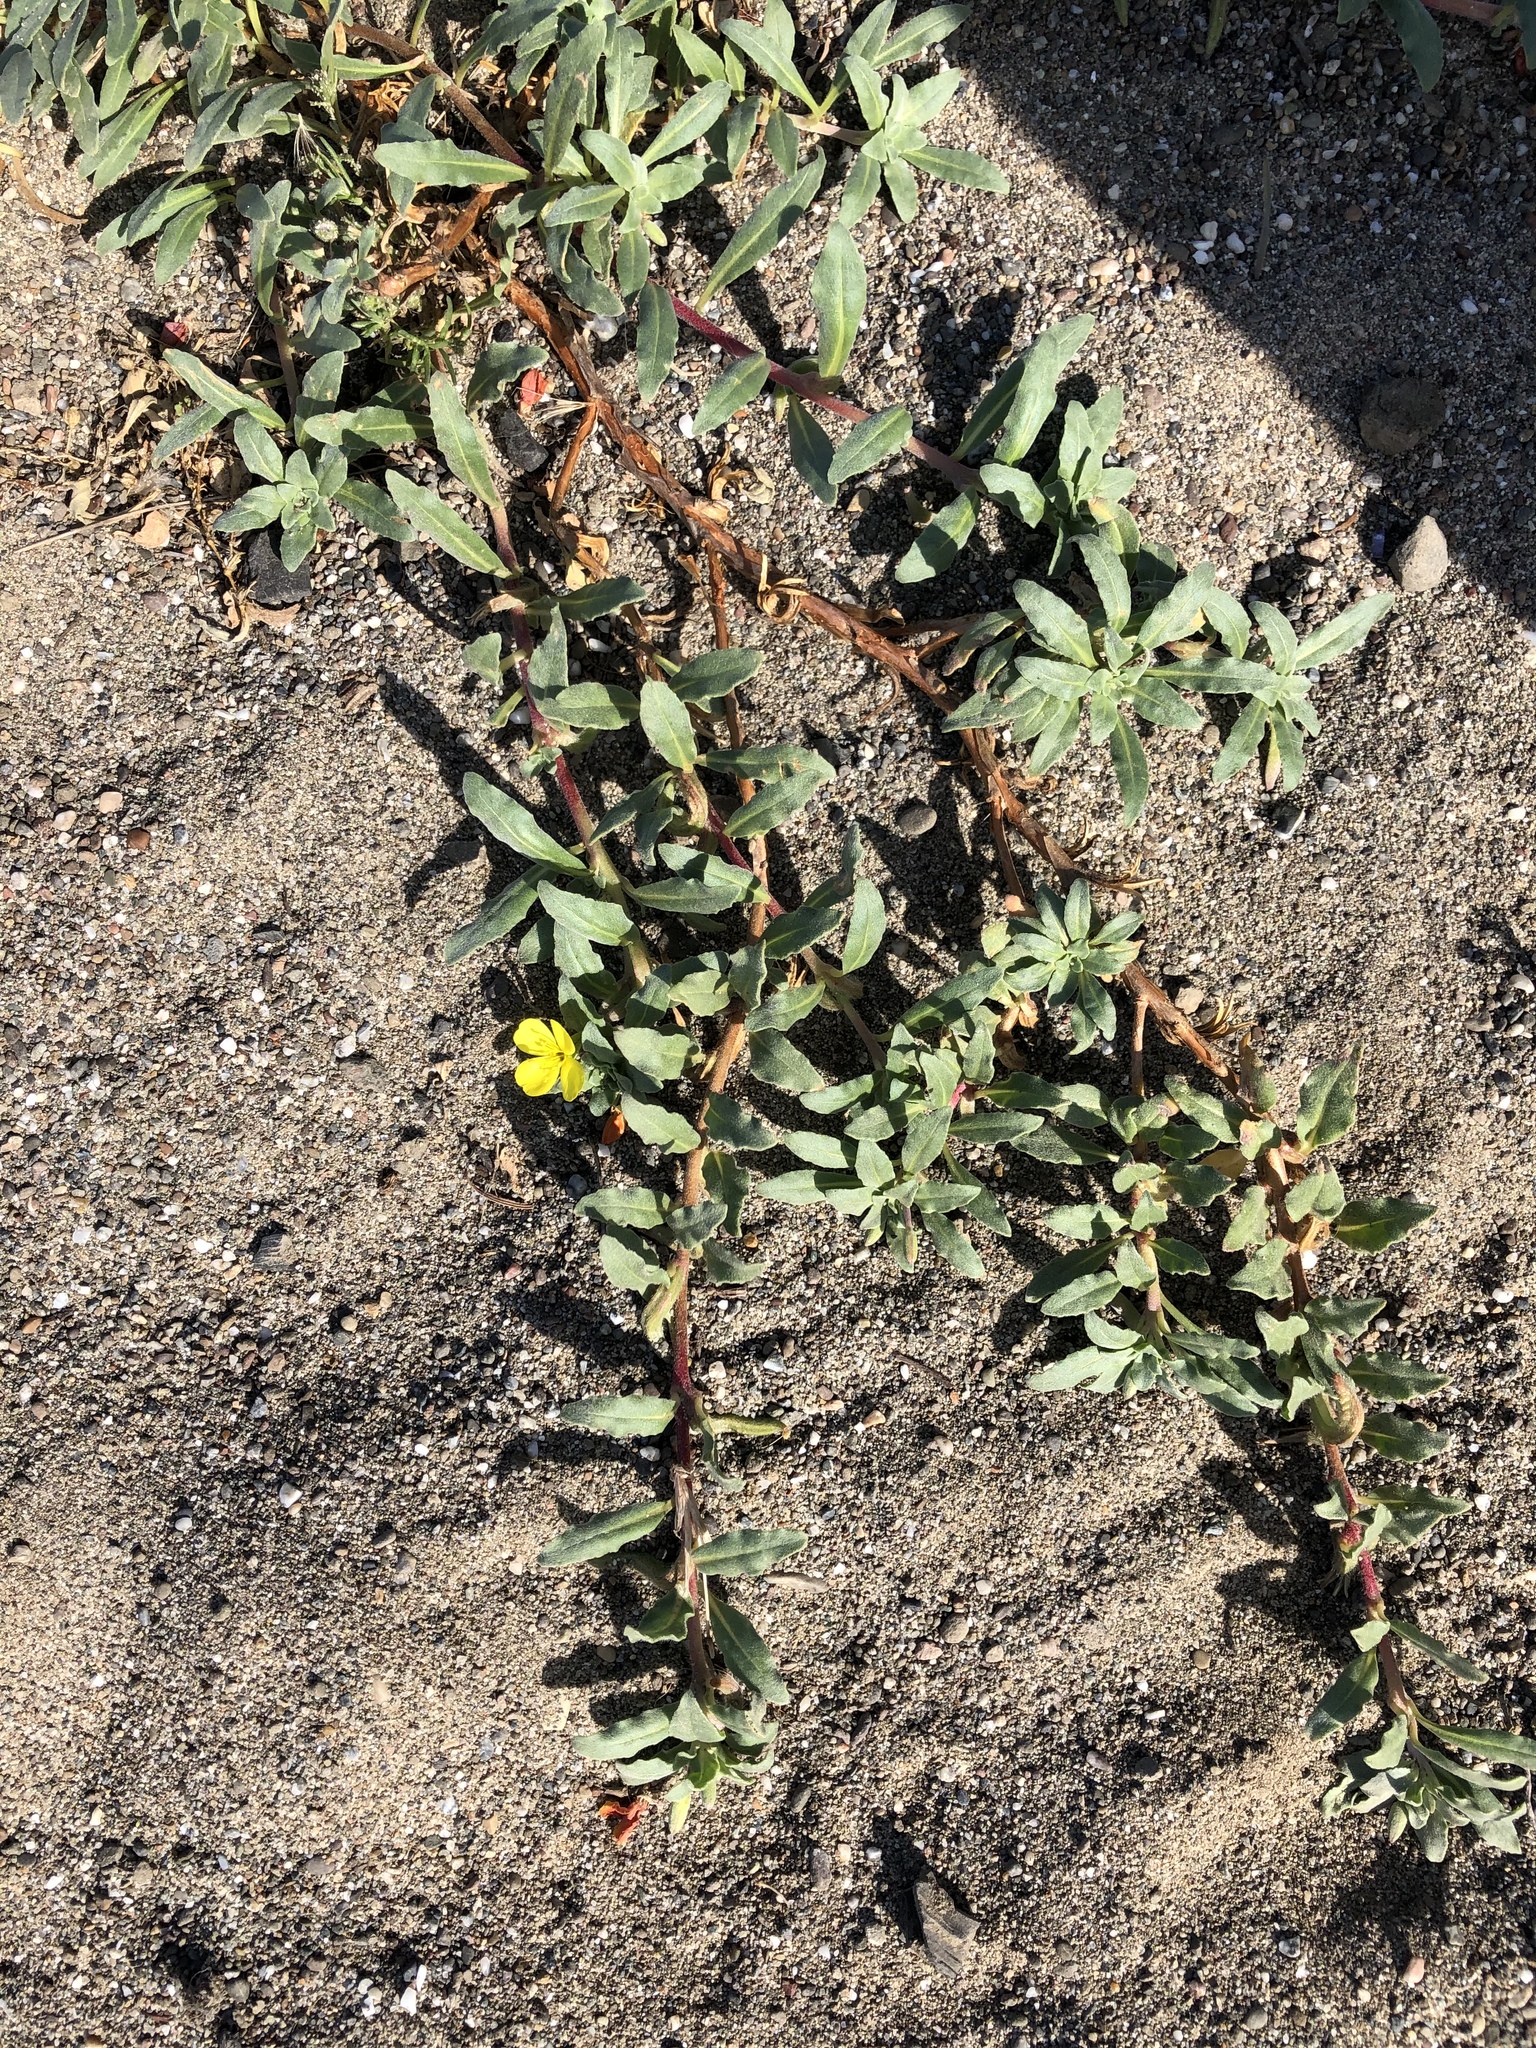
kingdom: Plantae
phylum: Tracheophyta
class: Magnoliopsida
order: Myrtales
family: Onagraceae
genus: Camissoniopsis
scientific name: Camissoniopsis cheiranthifolia
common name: Beach suncup
